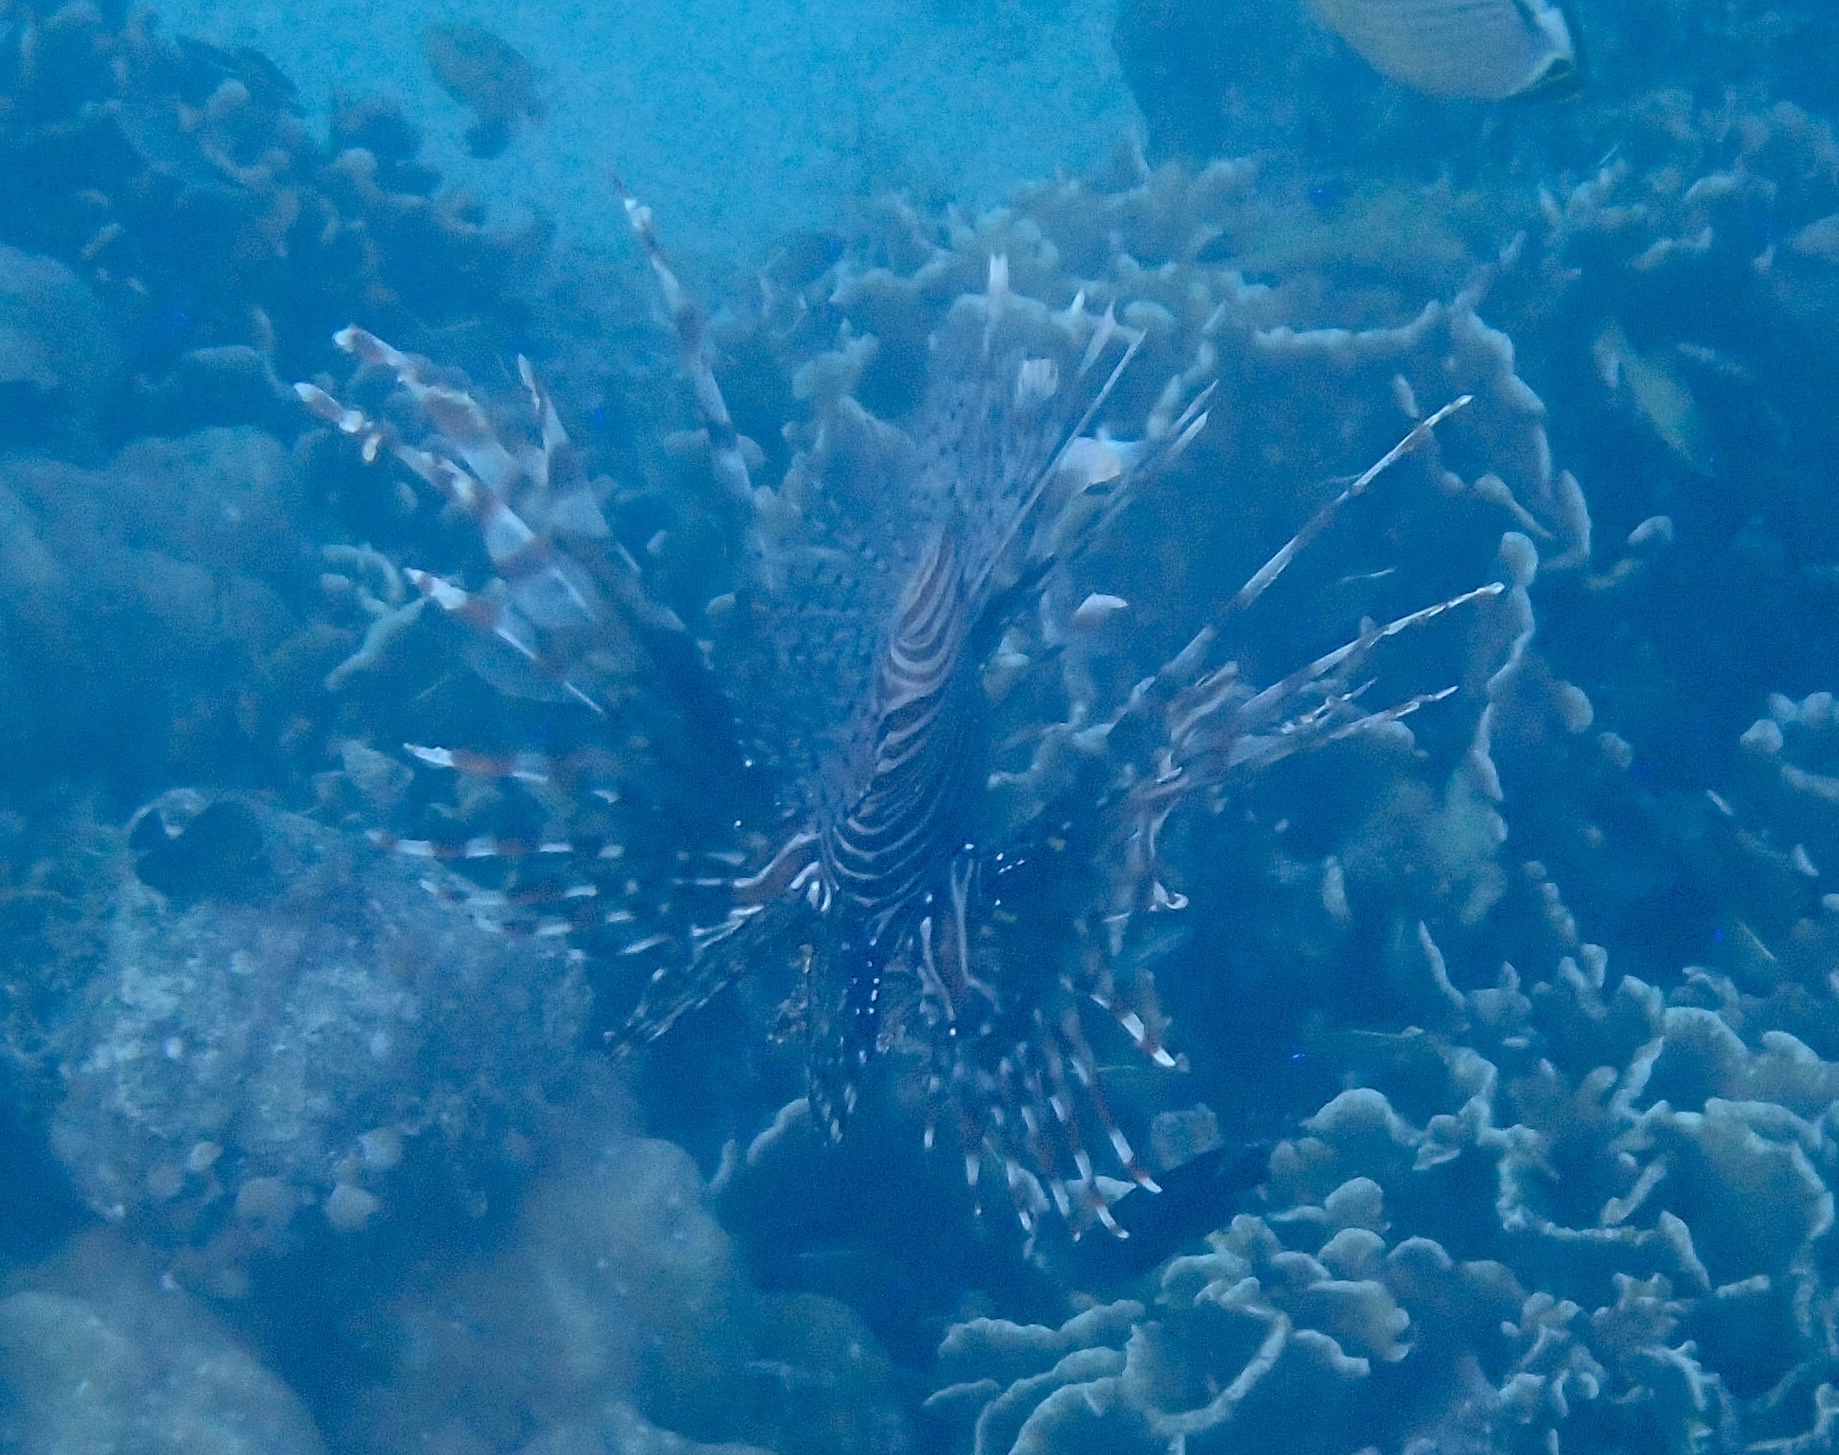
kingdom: Animalia
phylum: Chordata
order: Scorpaeniformes
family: Scorpaenidae
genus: Pterois
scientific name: Pterois volitans
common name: Lionfish
